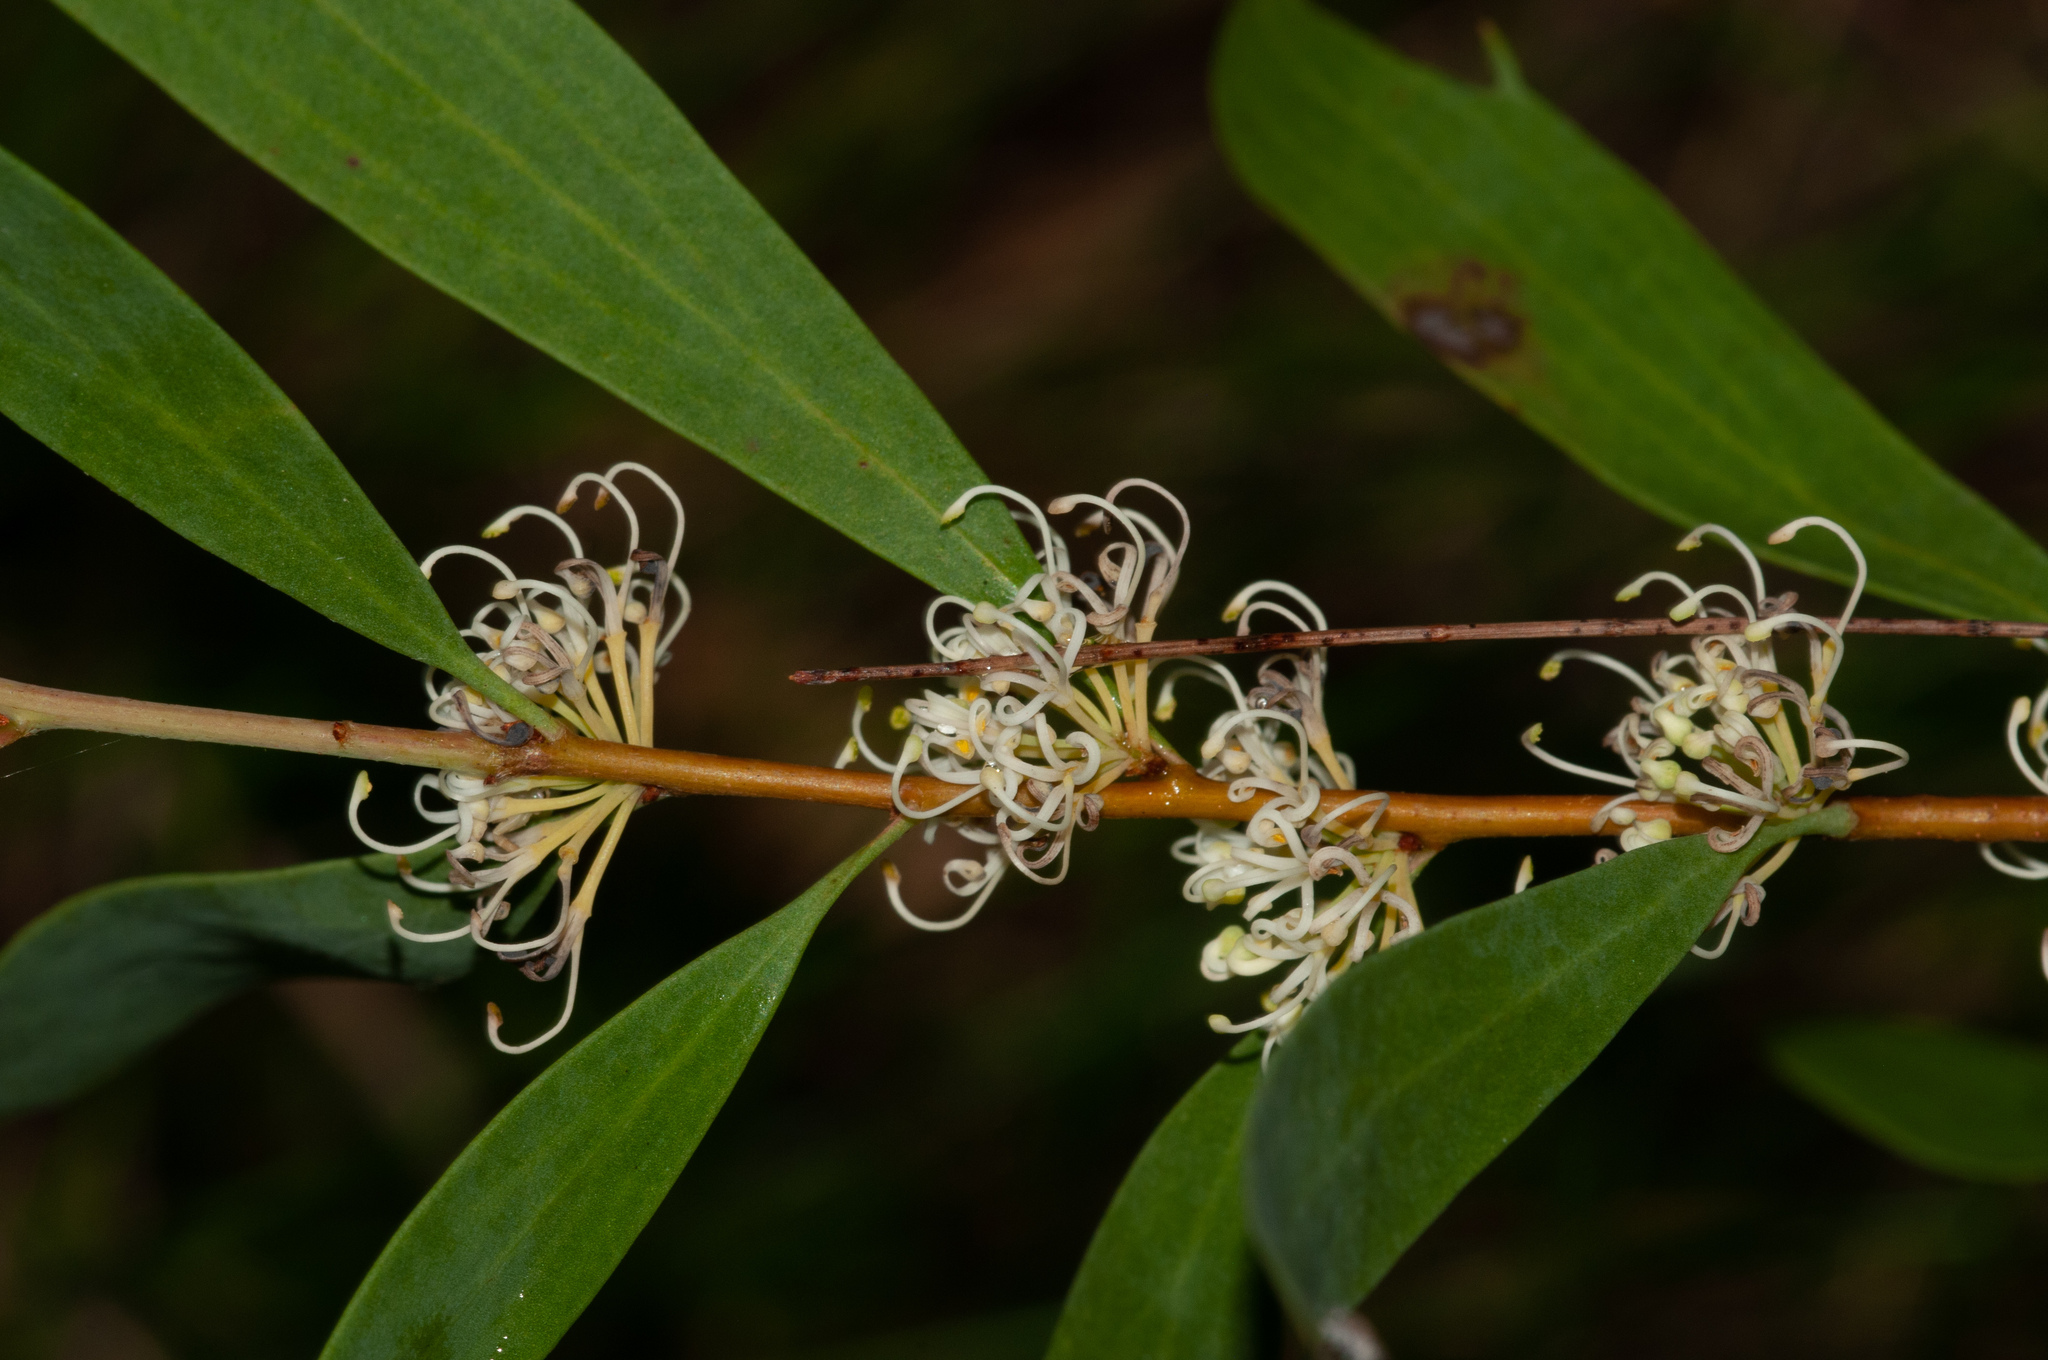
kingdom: Plantae
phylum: Tracheophyta
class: Magnoliopsida
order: Proteales
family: Proteaceae
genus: Hakea
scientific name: Hakea florulenta
